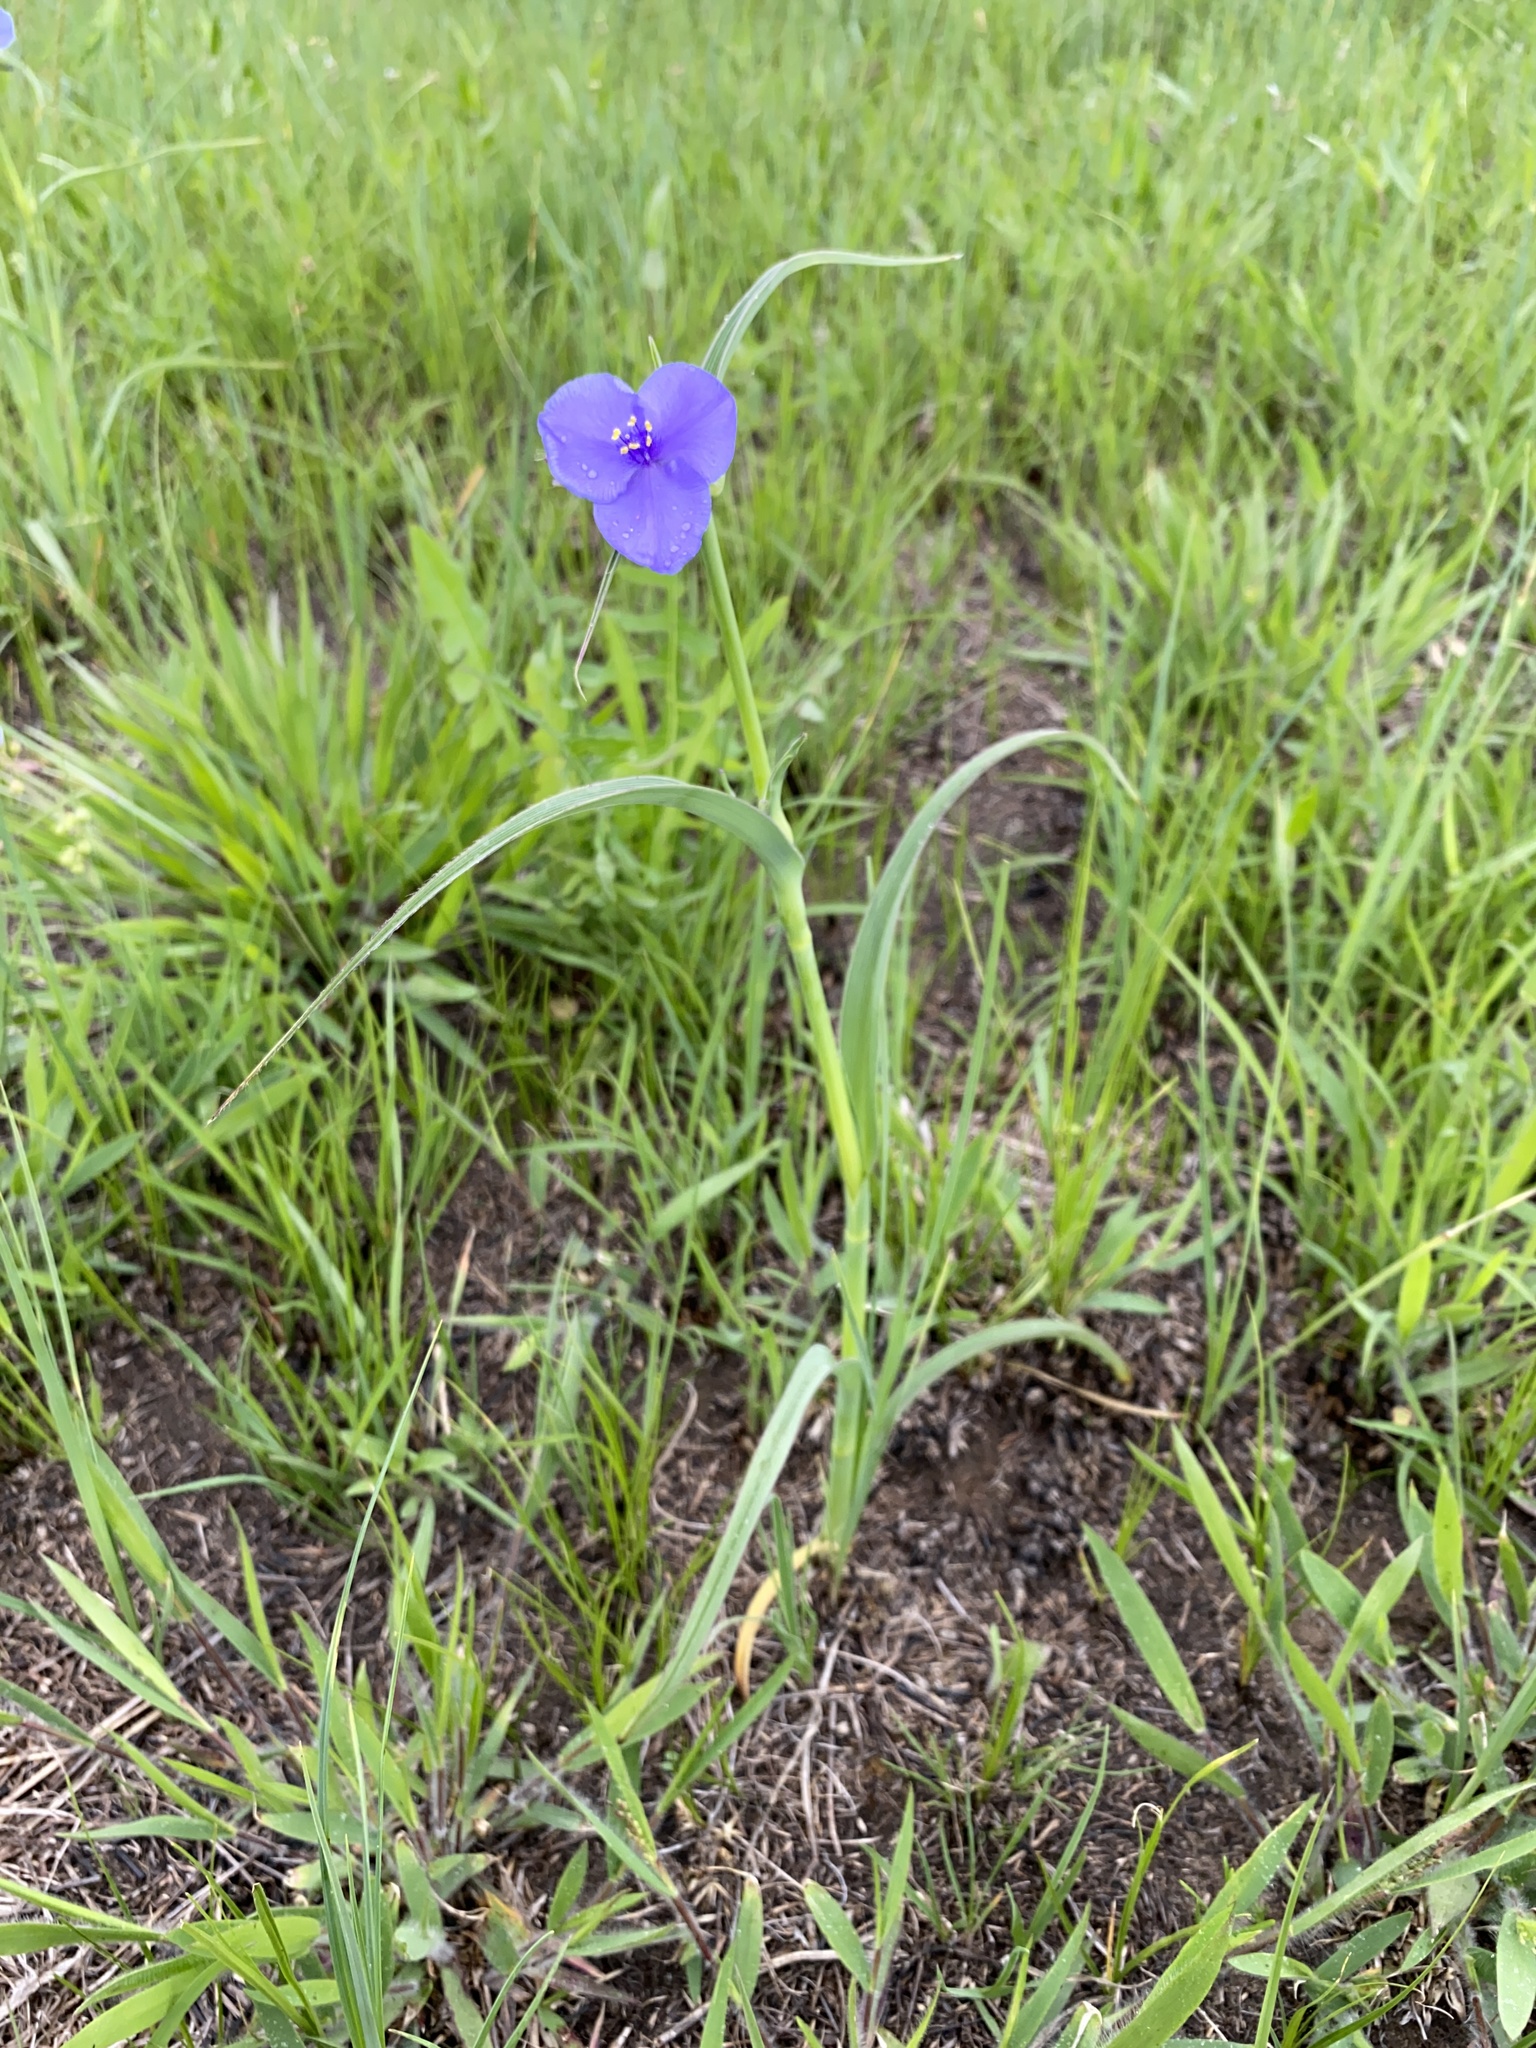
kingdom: Plantae
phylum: Tracheophyta
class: Liliopsida
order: Commelinales
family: Commelinaceae
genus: Tradescantia
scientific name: Tradescantia ohiensis
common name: Ohio spiderwort
